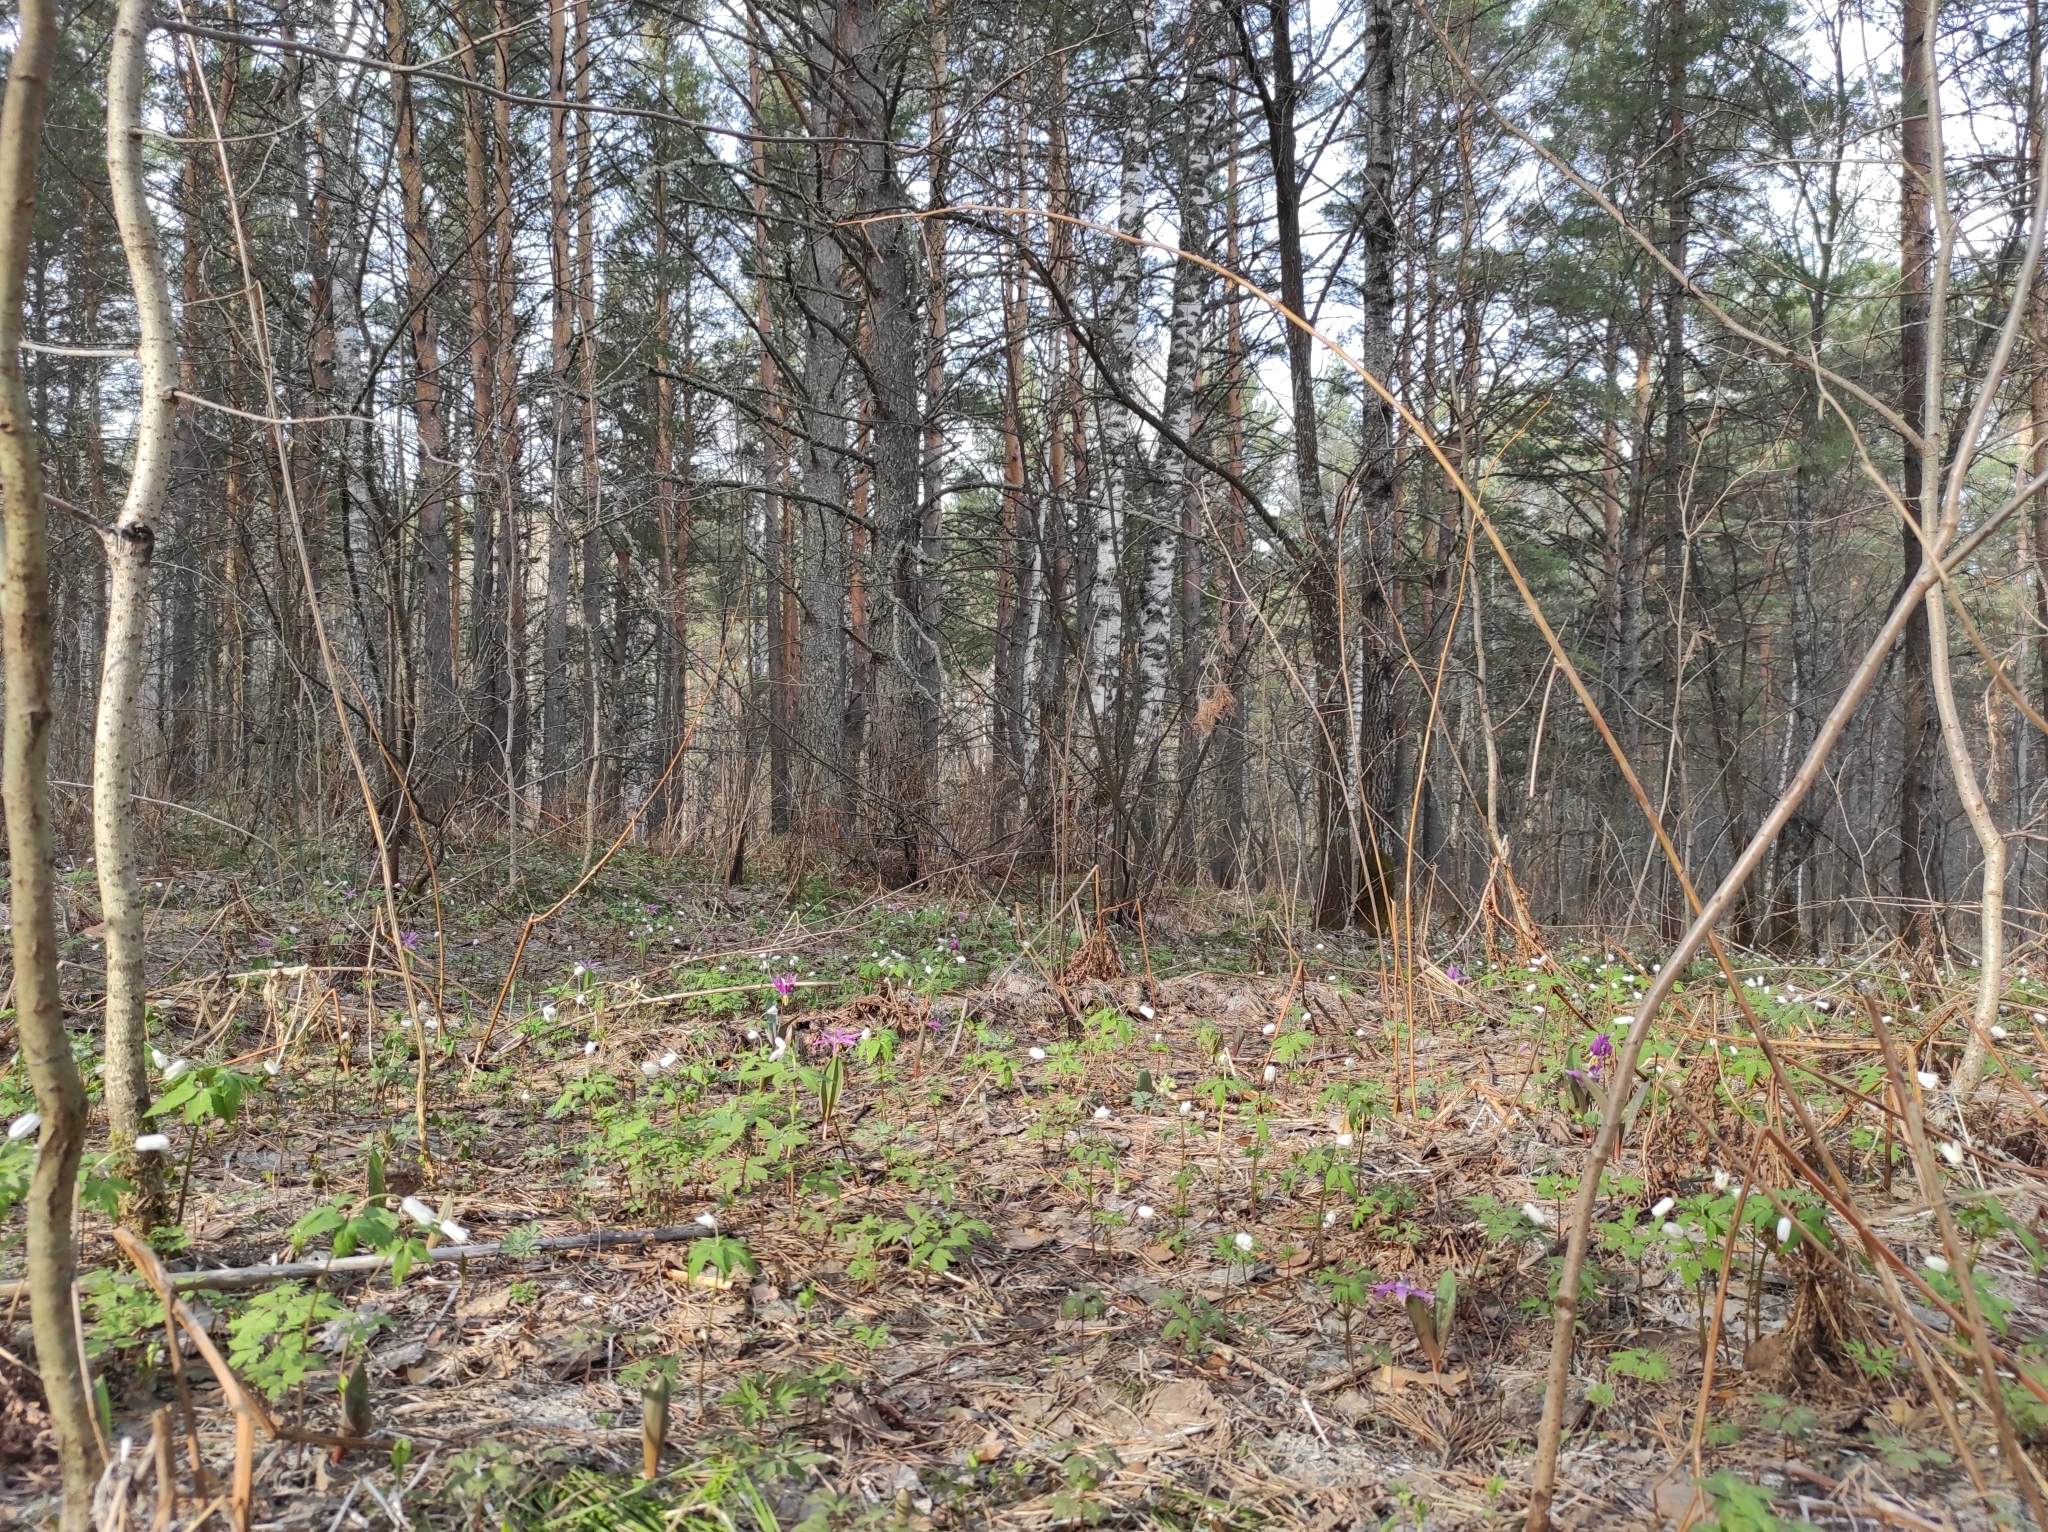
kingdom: Plantae
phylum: Tracheophyta
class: Pinopsida
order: Pinales
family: Pinaceae
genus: Pinus
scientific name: Pinus sylvestris
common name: Scots pine
